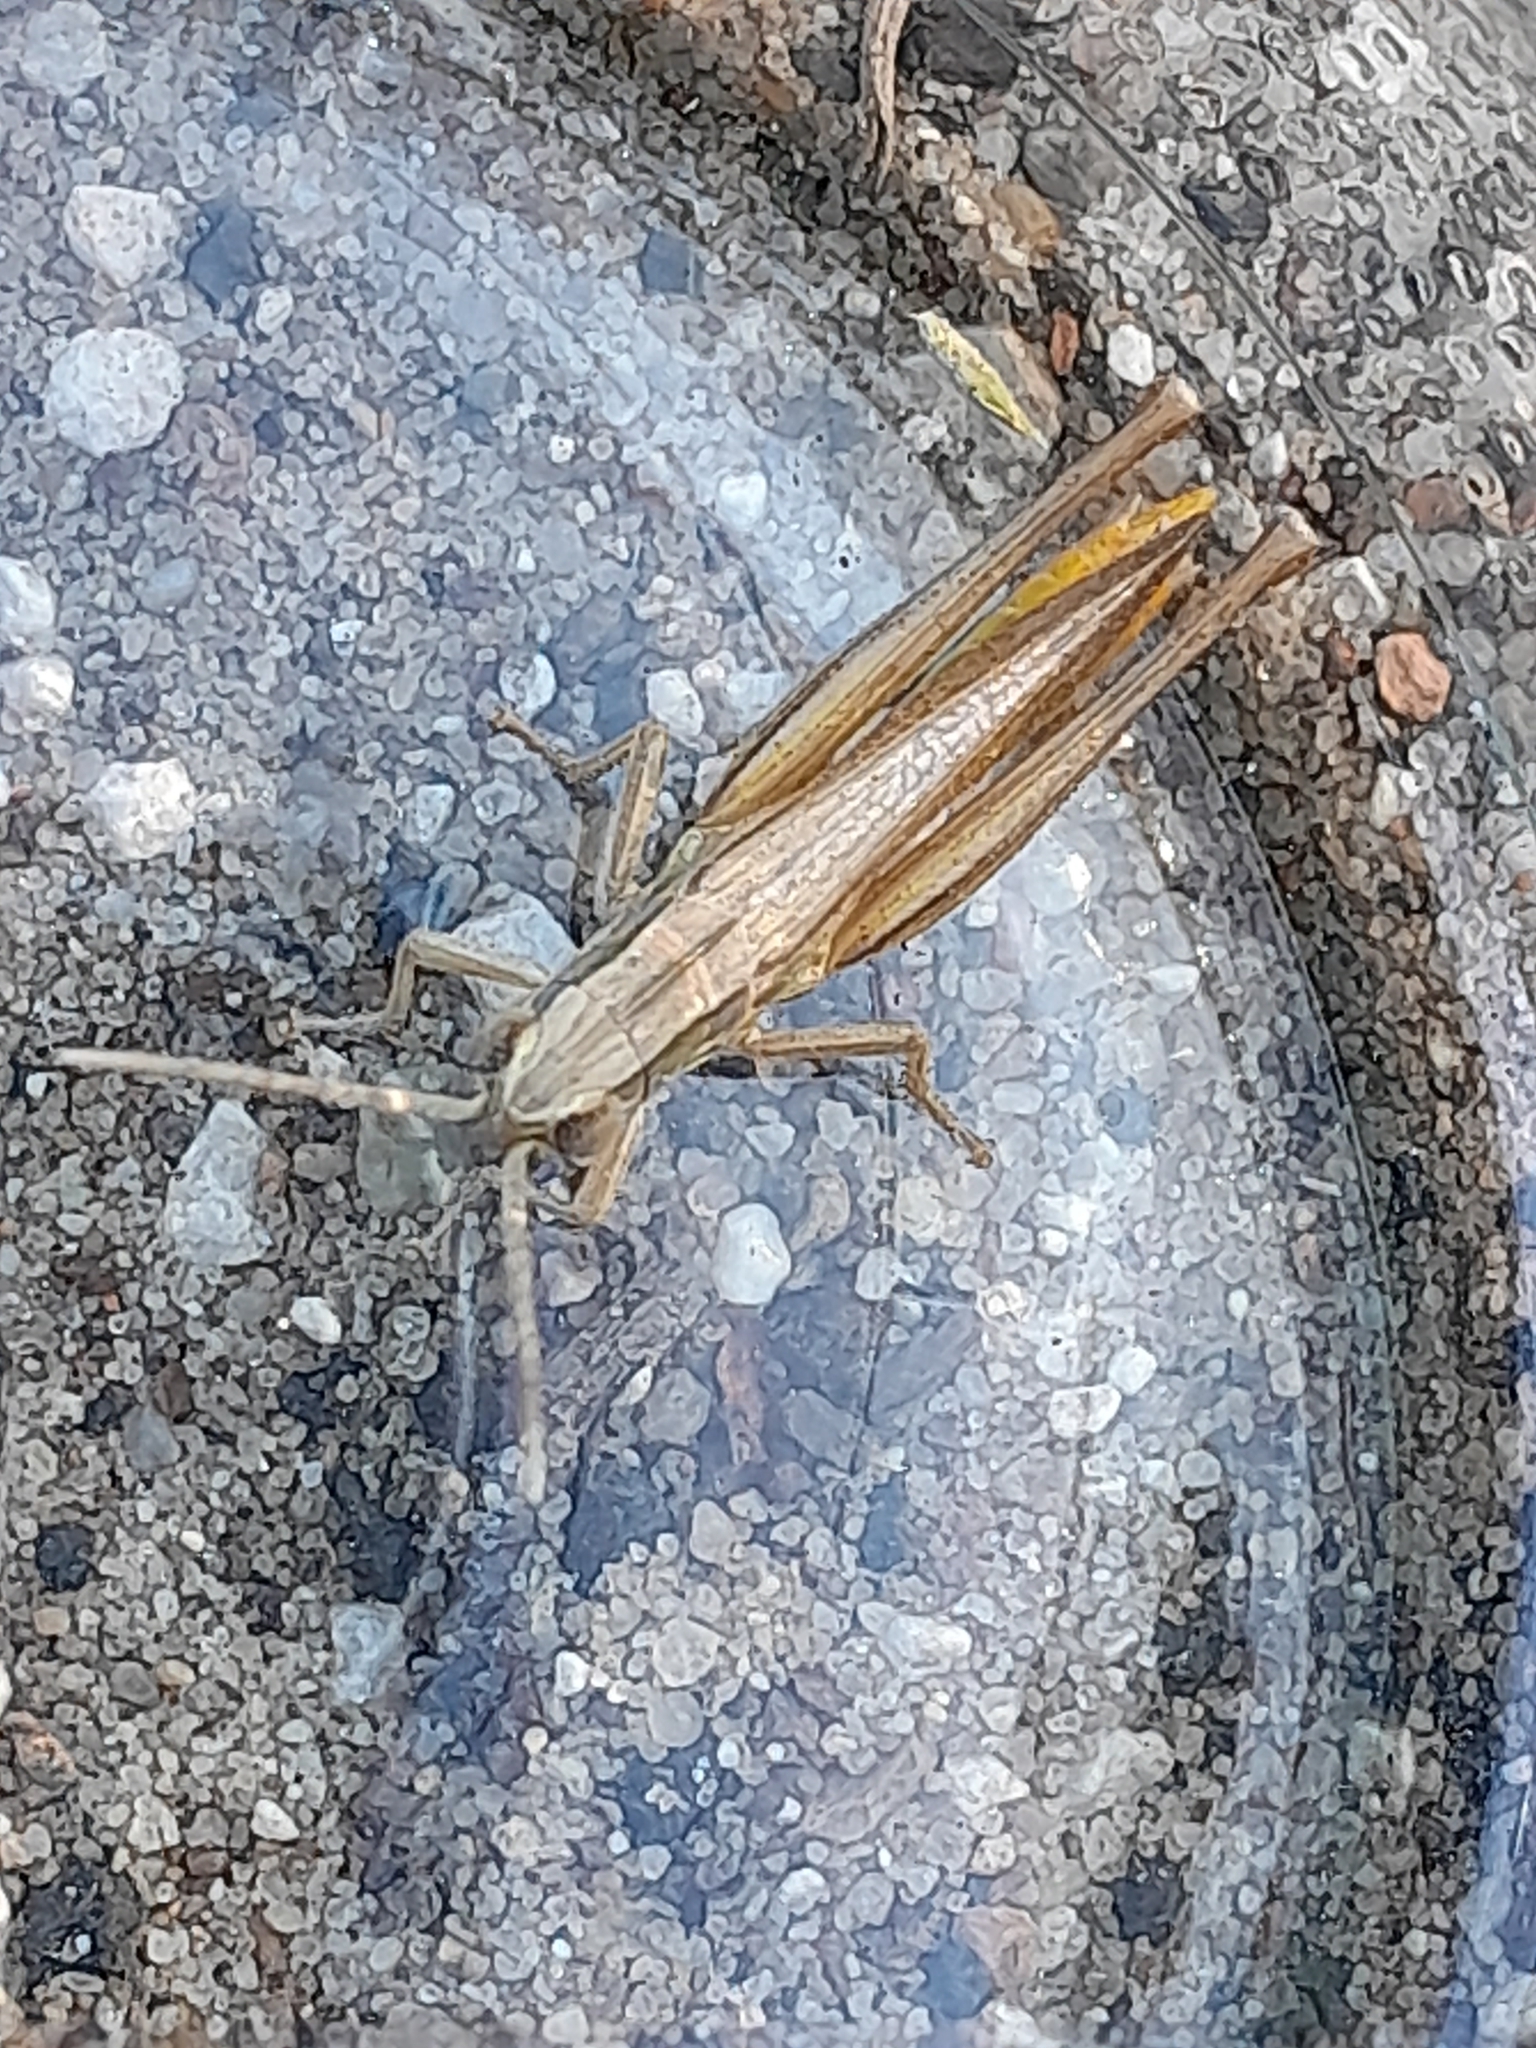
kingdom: Animalia
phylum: Arthropoda
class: Insecta
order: Orthoptera
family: Acrididae
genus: Euchorthippus
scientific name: Euchorthippus declivus
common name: Common straw grasshopper
